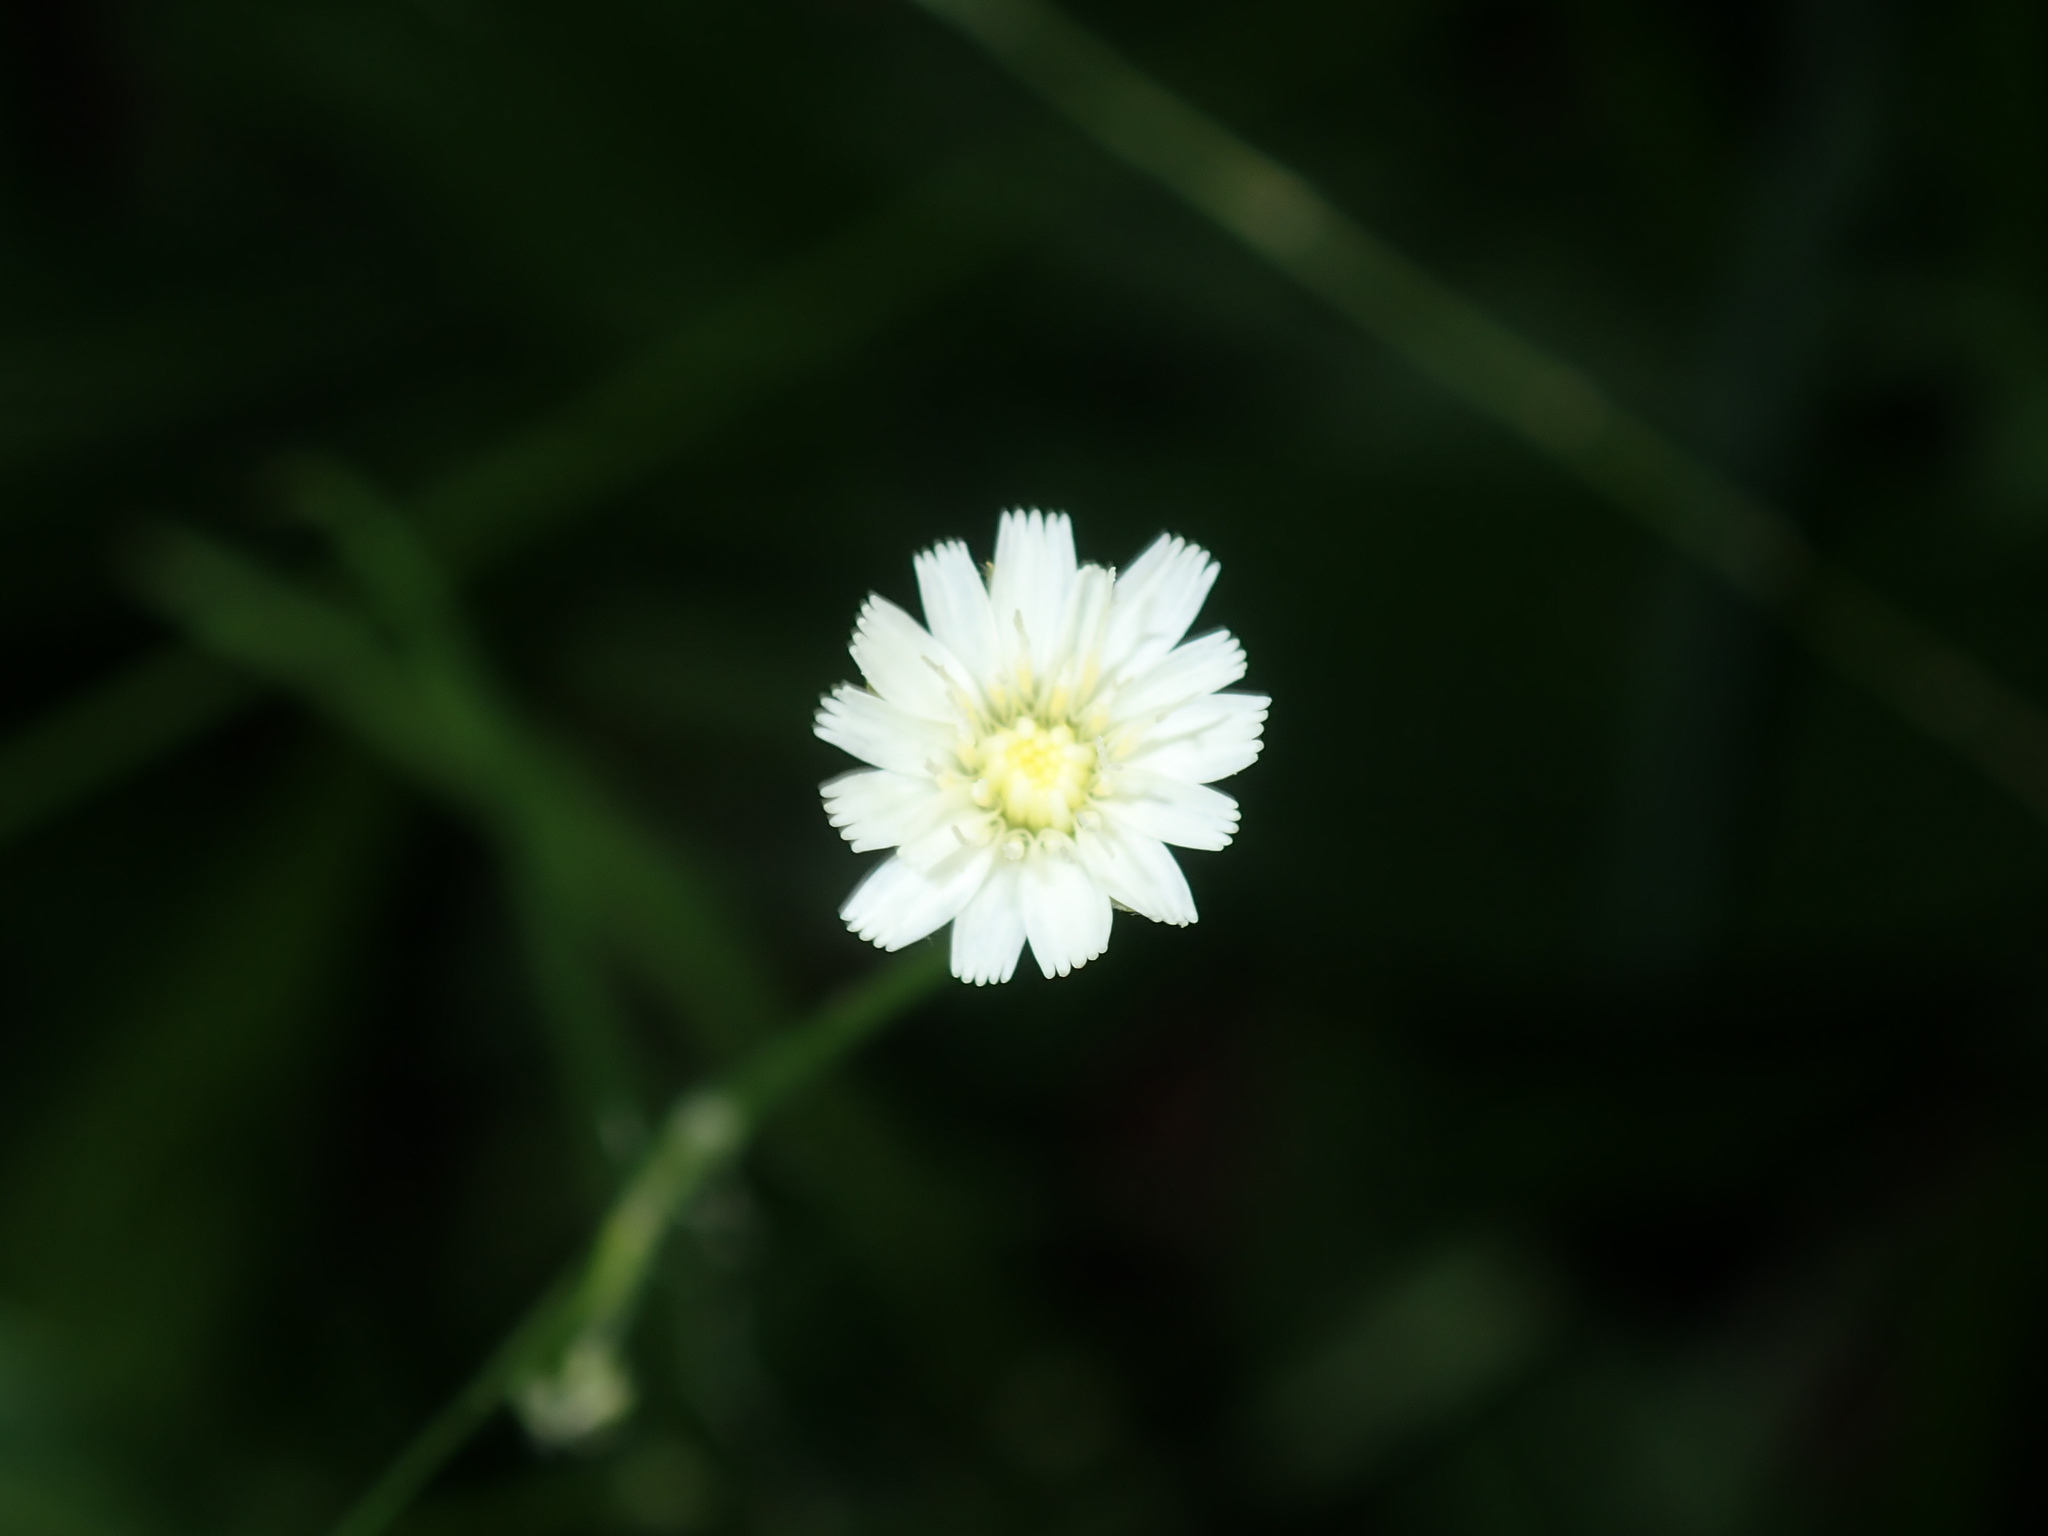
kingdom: Plantae
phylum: Tracheophyta
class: Magnoliopsida
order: Asterales
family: Asteraceae
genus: Hypochaeris
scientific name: Hypochaeris albiflora
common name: White flatweed
